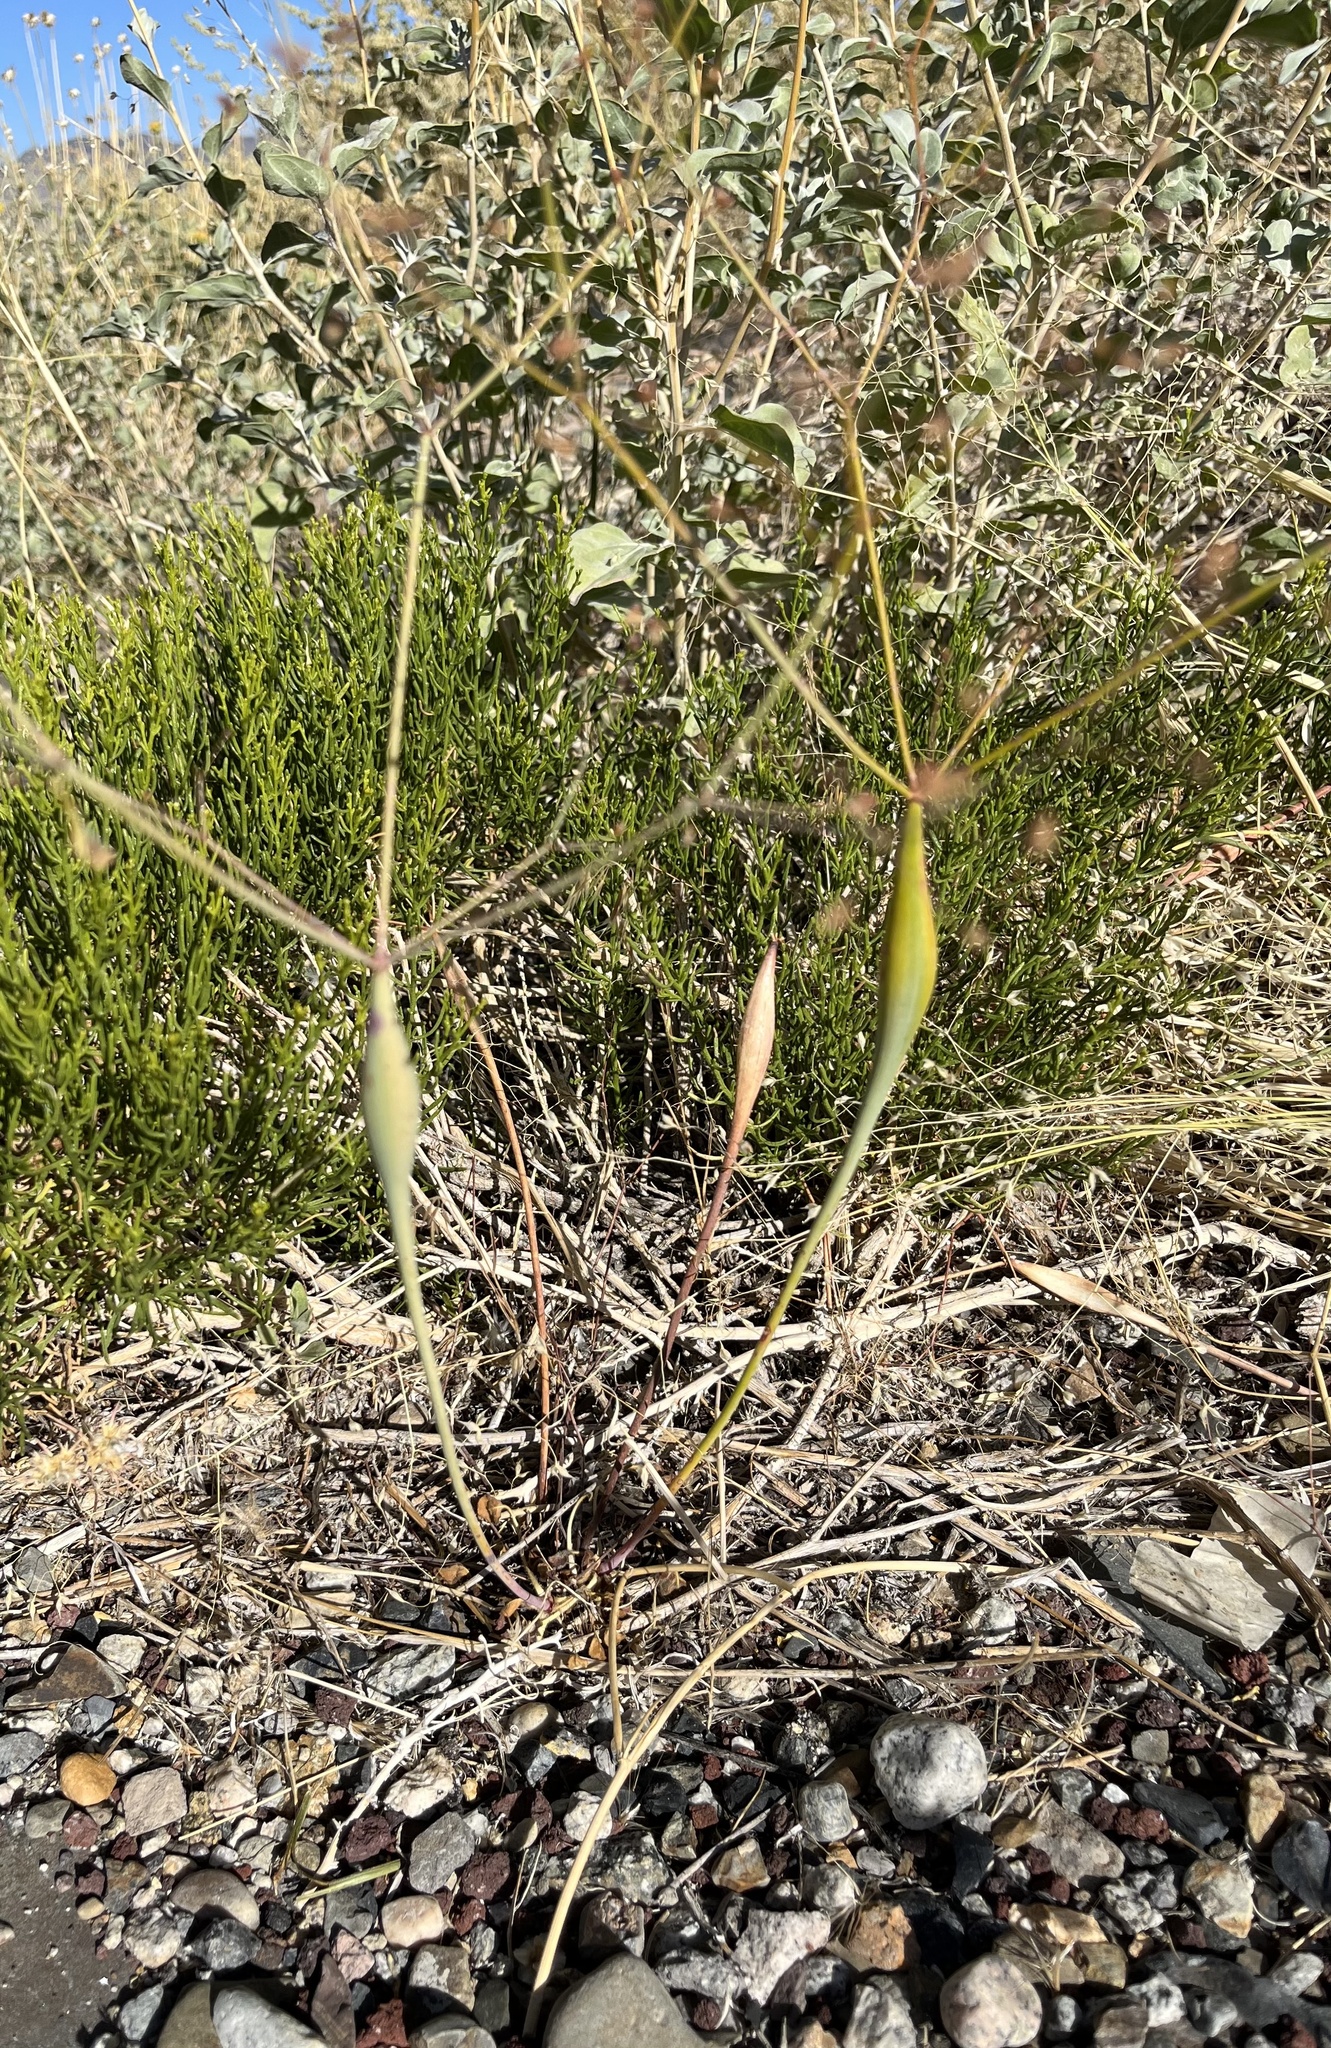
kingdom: Plantae
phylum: Tracheophyta
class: Magnoliopsida
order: Caryophyllales
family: Polygonaceae
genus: Eriogonum
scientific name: Eriogonum inflatum
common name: Desert trumpet
